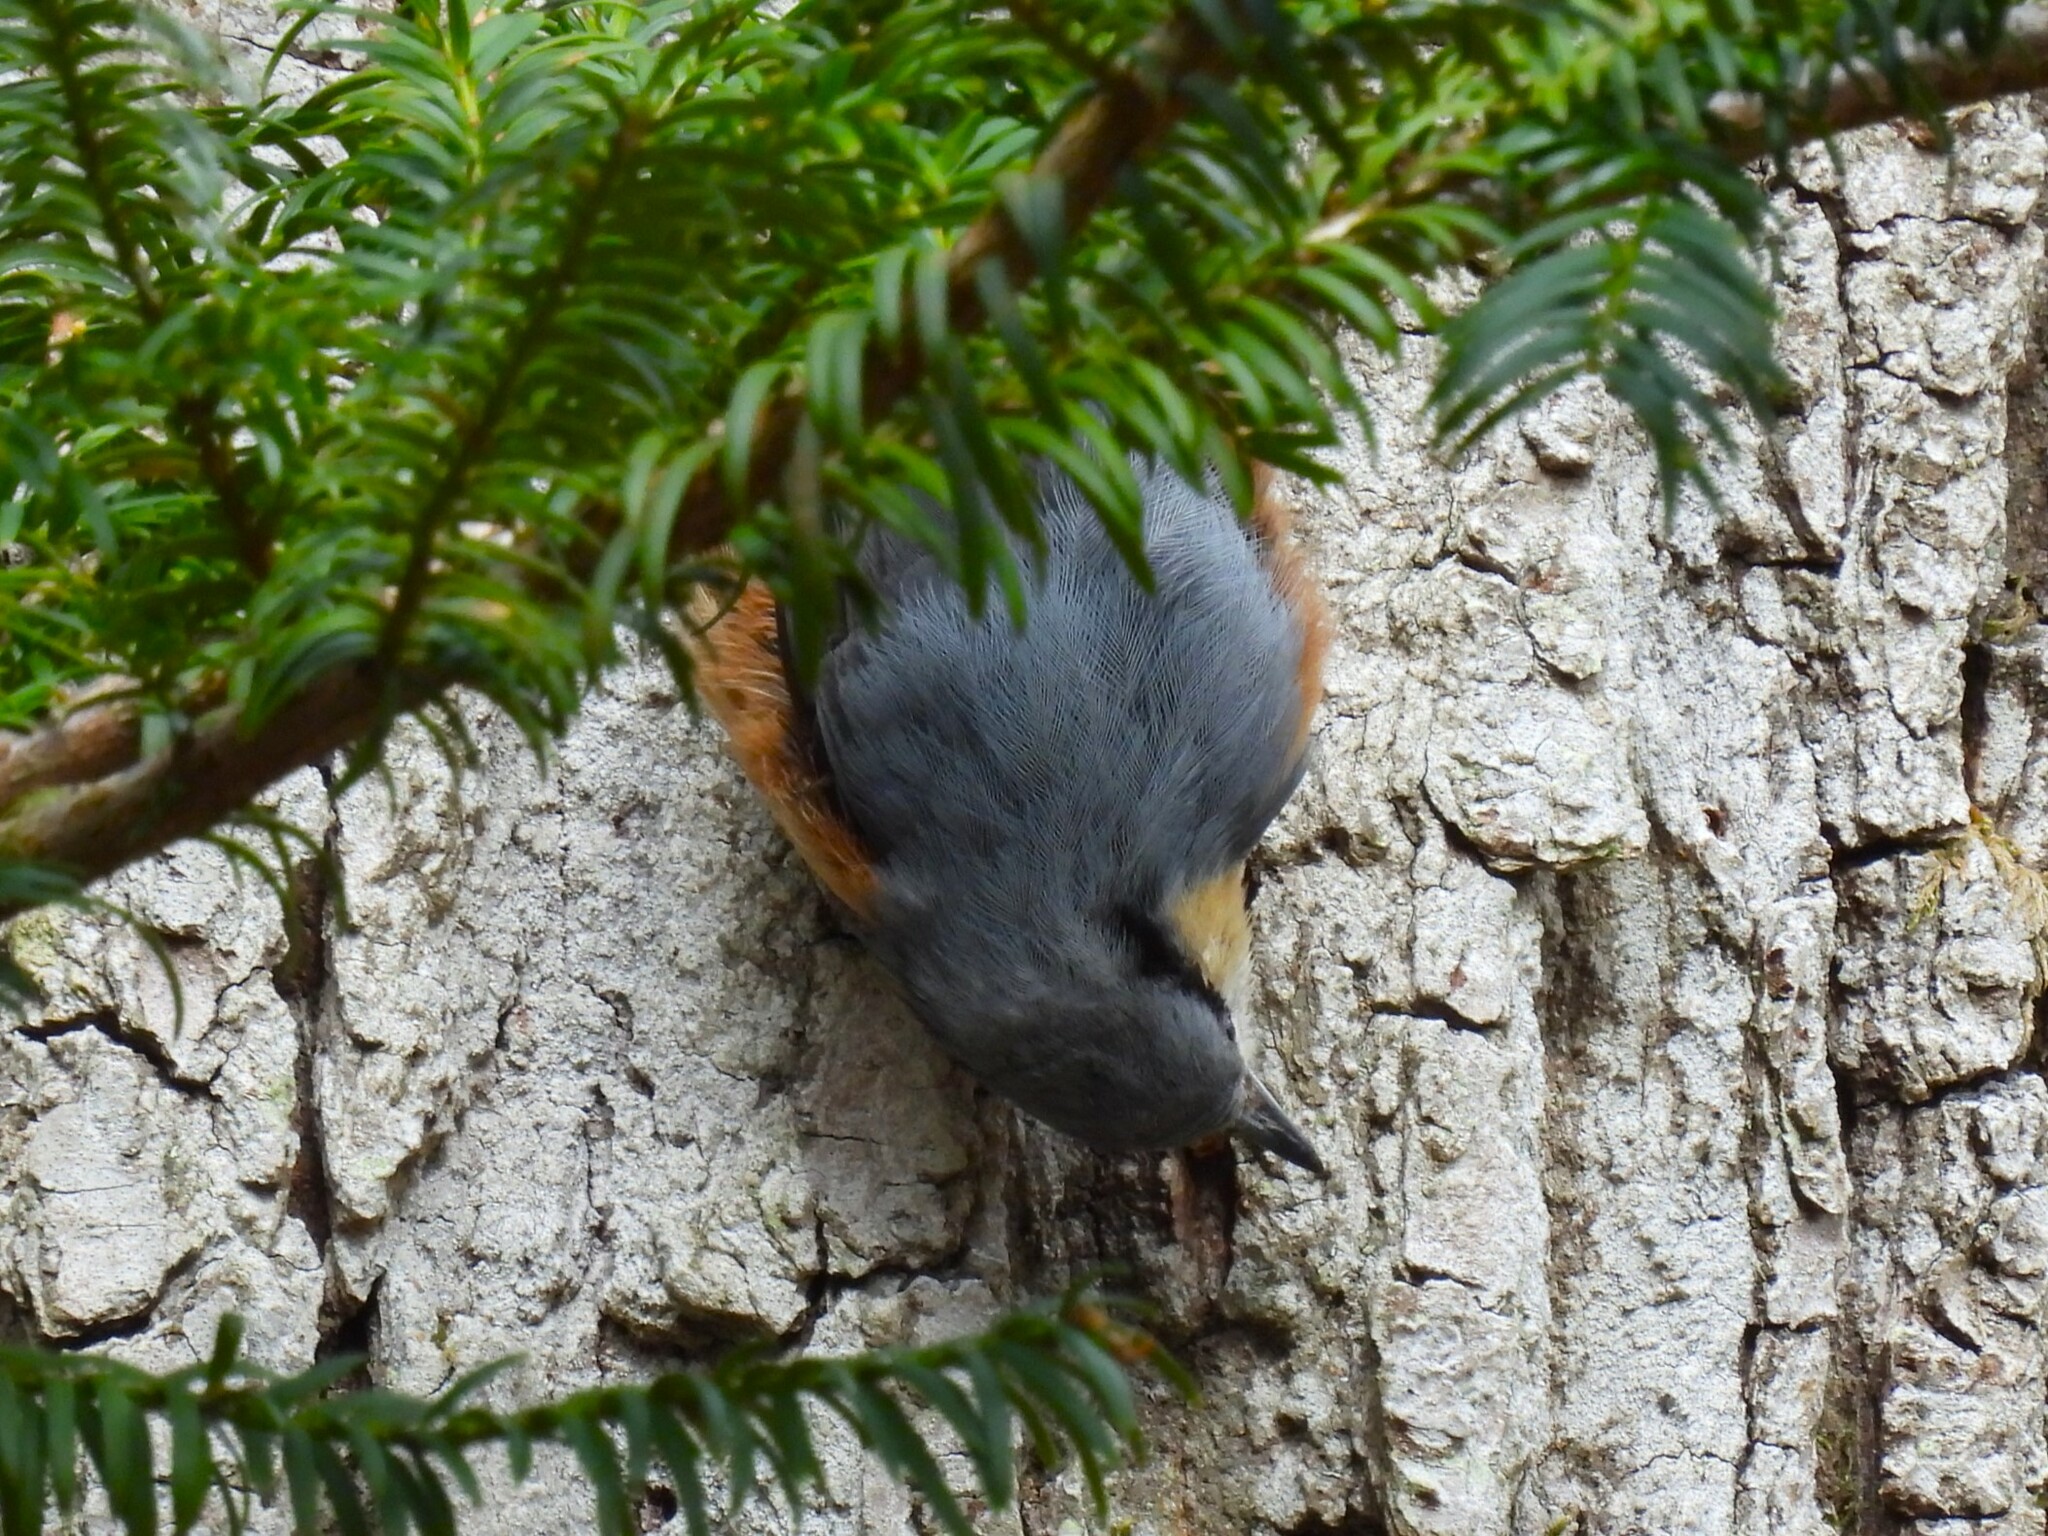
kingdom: Animalia
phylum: Chordata
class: Aves
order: Passeriformes
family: Sittidae
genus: Sitta
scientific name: Sitta europaea
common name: Eurasian nuthatch
